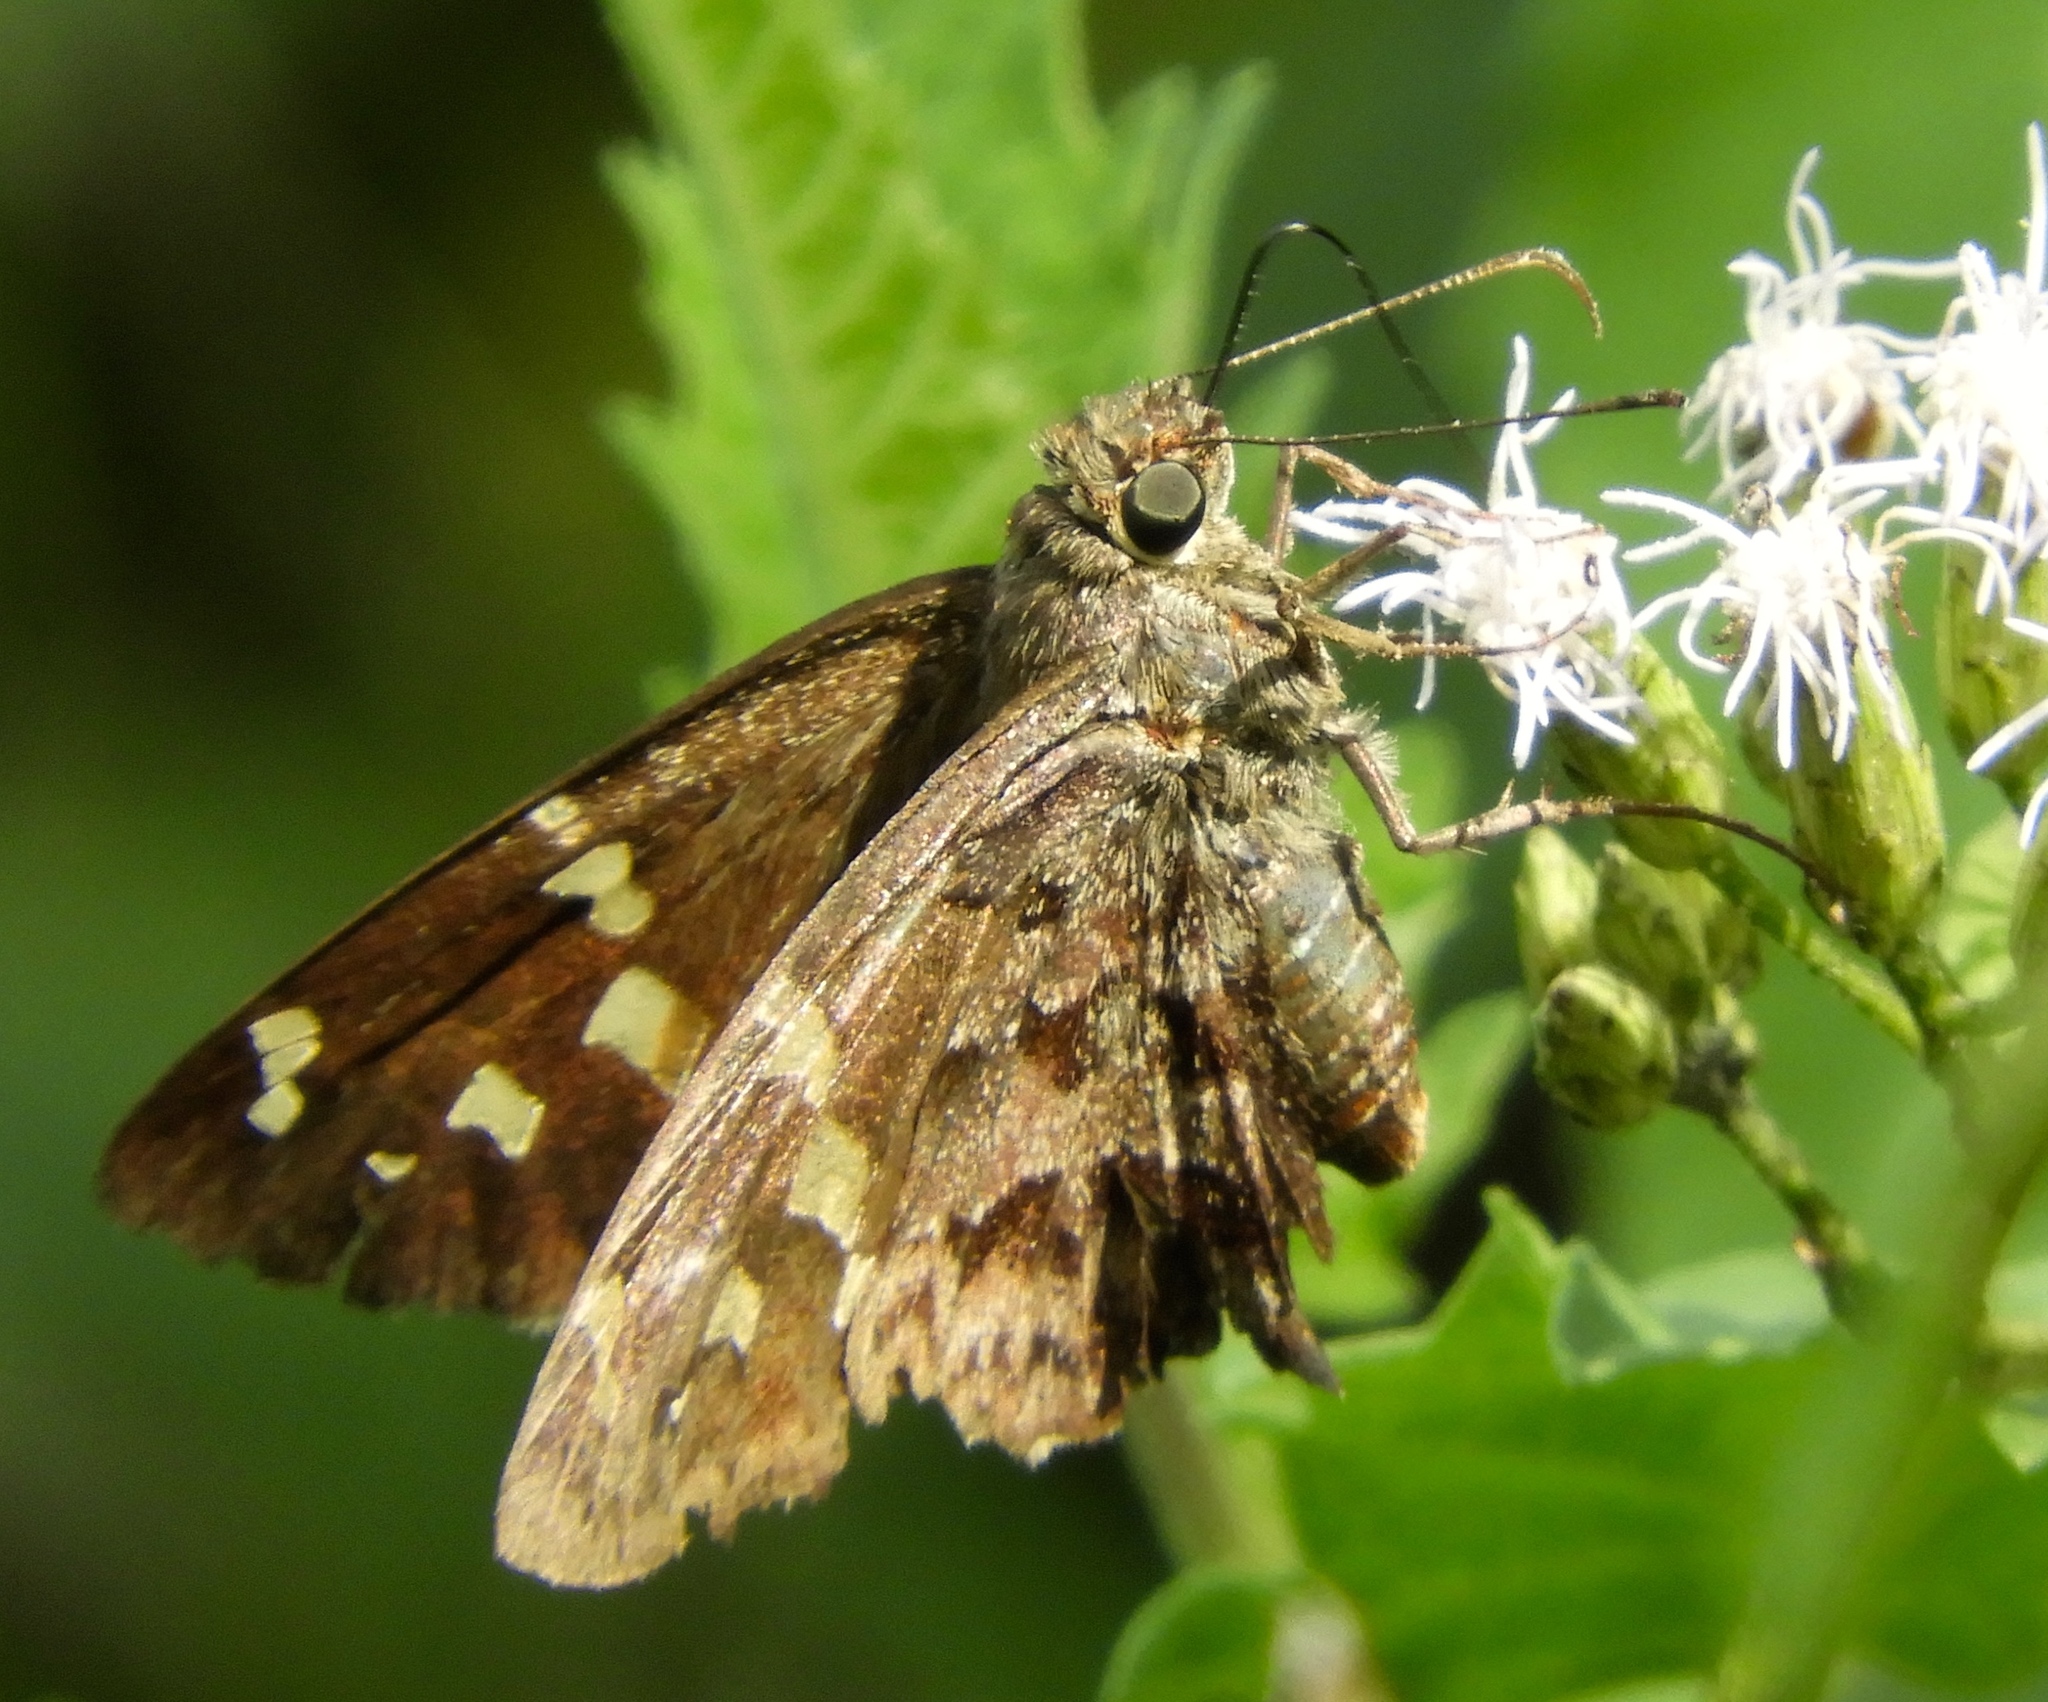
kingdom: Animalia
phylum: Arthropoda
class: Insecta
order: Lepidoptera
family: Hesperiidae
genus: Thorybes
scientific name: Thorybes
